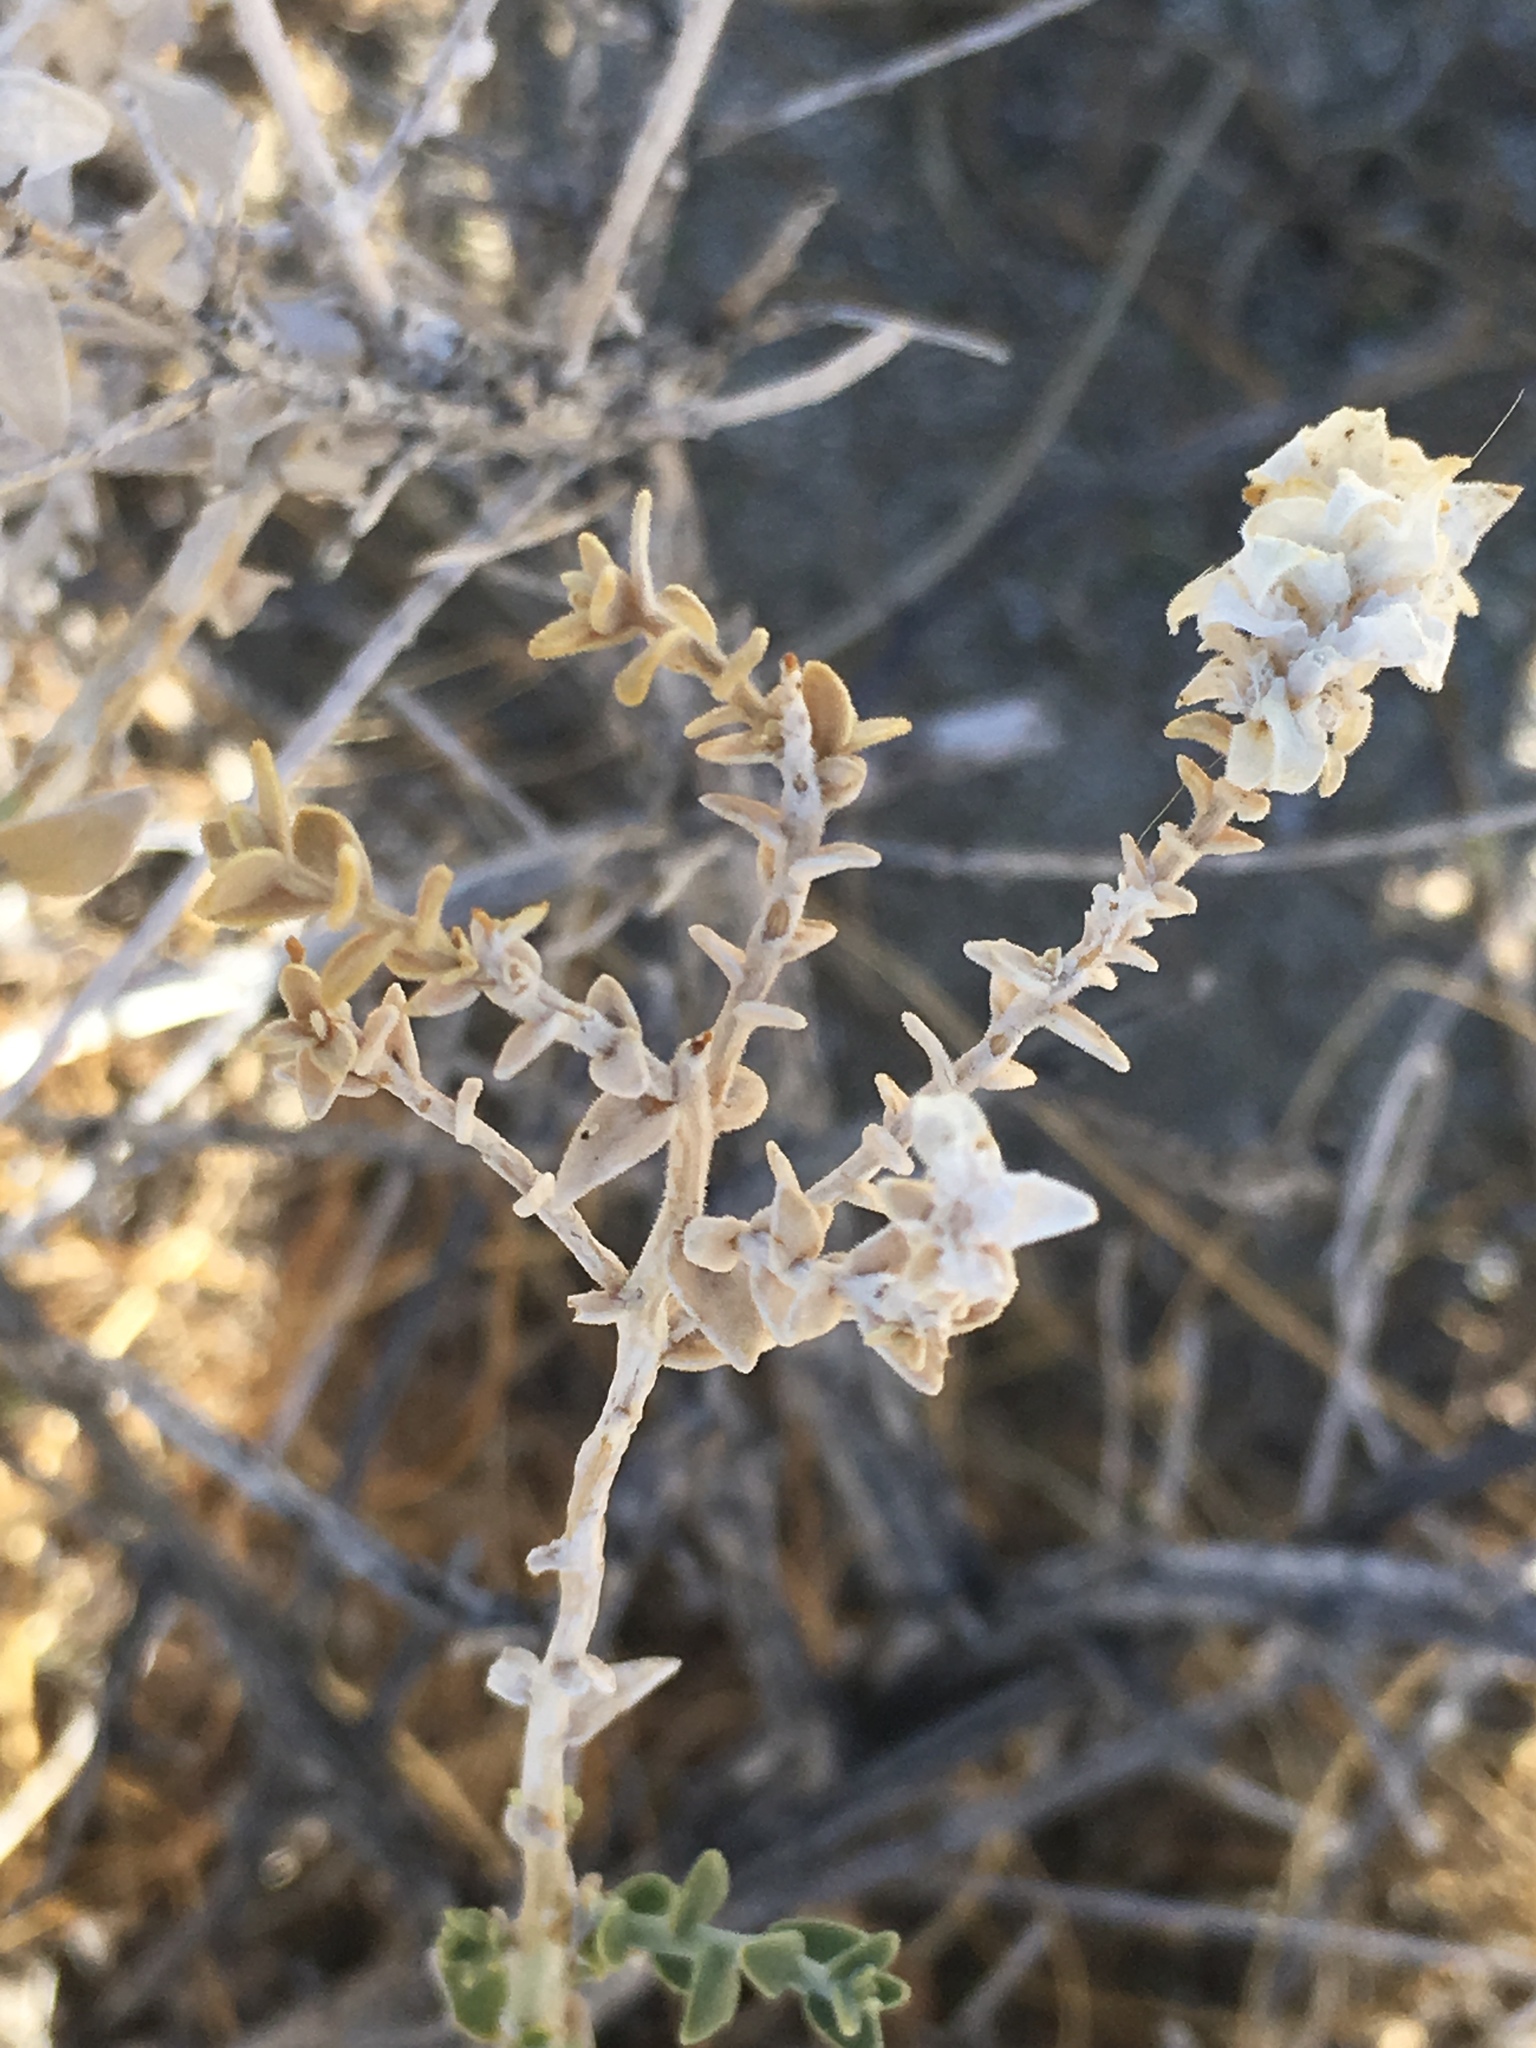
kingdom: Plantae
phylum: Tracheophyta
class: Magnoliopsida
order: Cornales
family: Loasaceae
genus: Petalonyx
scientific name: Petalonyx thurberi
